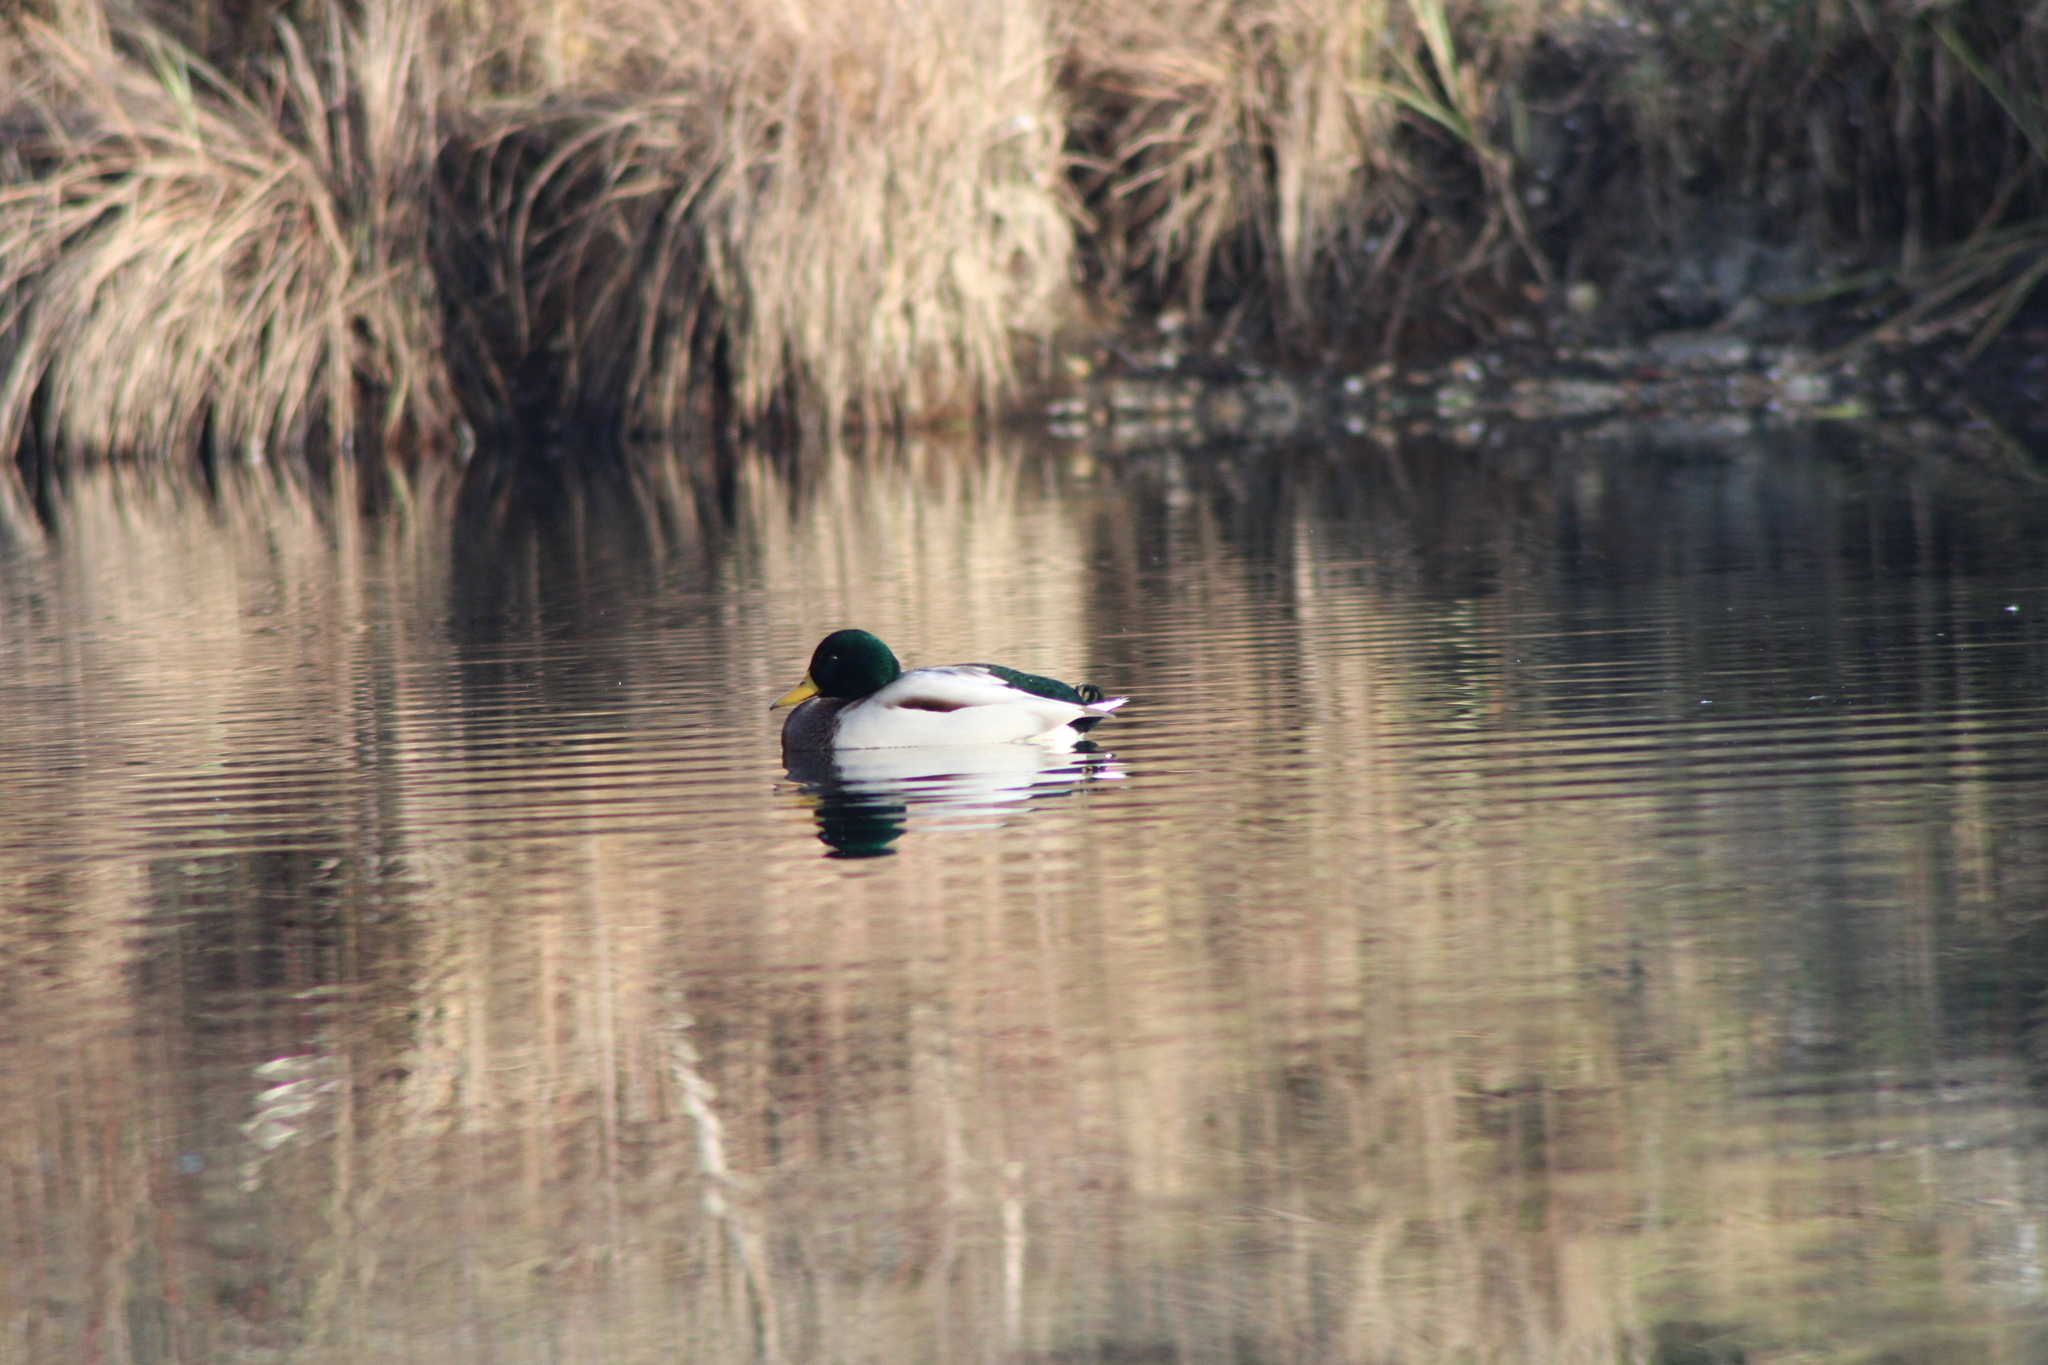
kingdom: Animalia
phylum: Chordata
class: Aves
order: Anseriformes
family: Anatidae
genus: Anas
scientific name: Anas platyrhynchos
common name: Mallard
